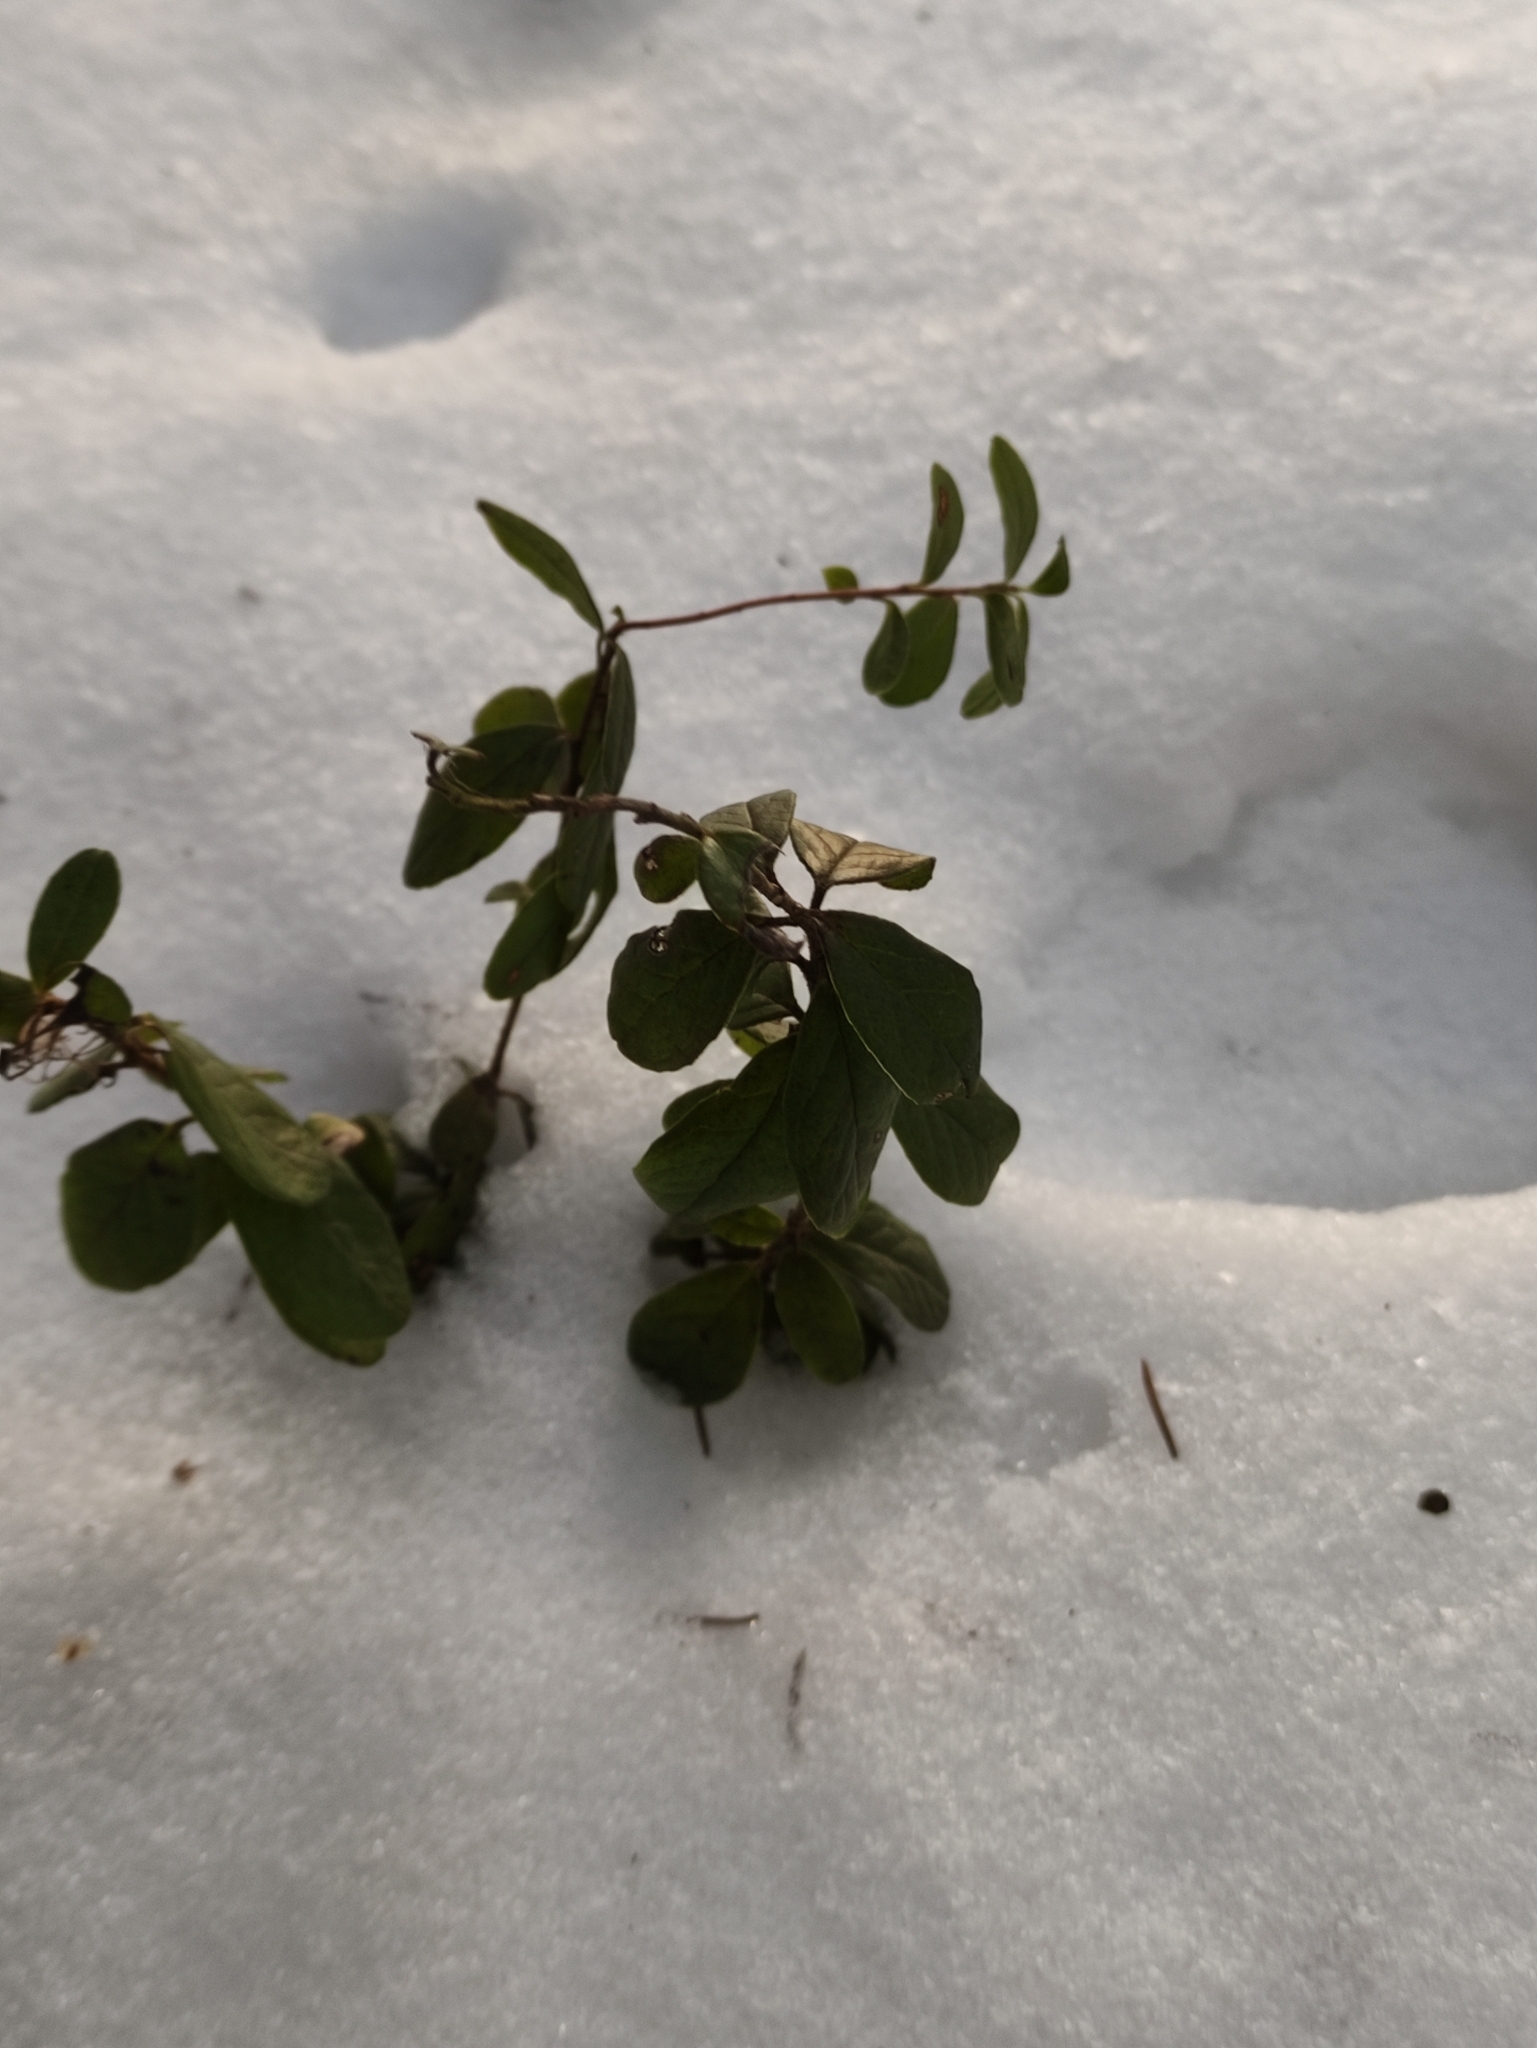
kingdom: Plantae
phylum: Tracheophyta
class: Magnoliopsida
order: Ericales
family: Ericaceae
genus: Vaccinium
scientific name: Vaccinium vitis-idaea
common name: Cowberry
